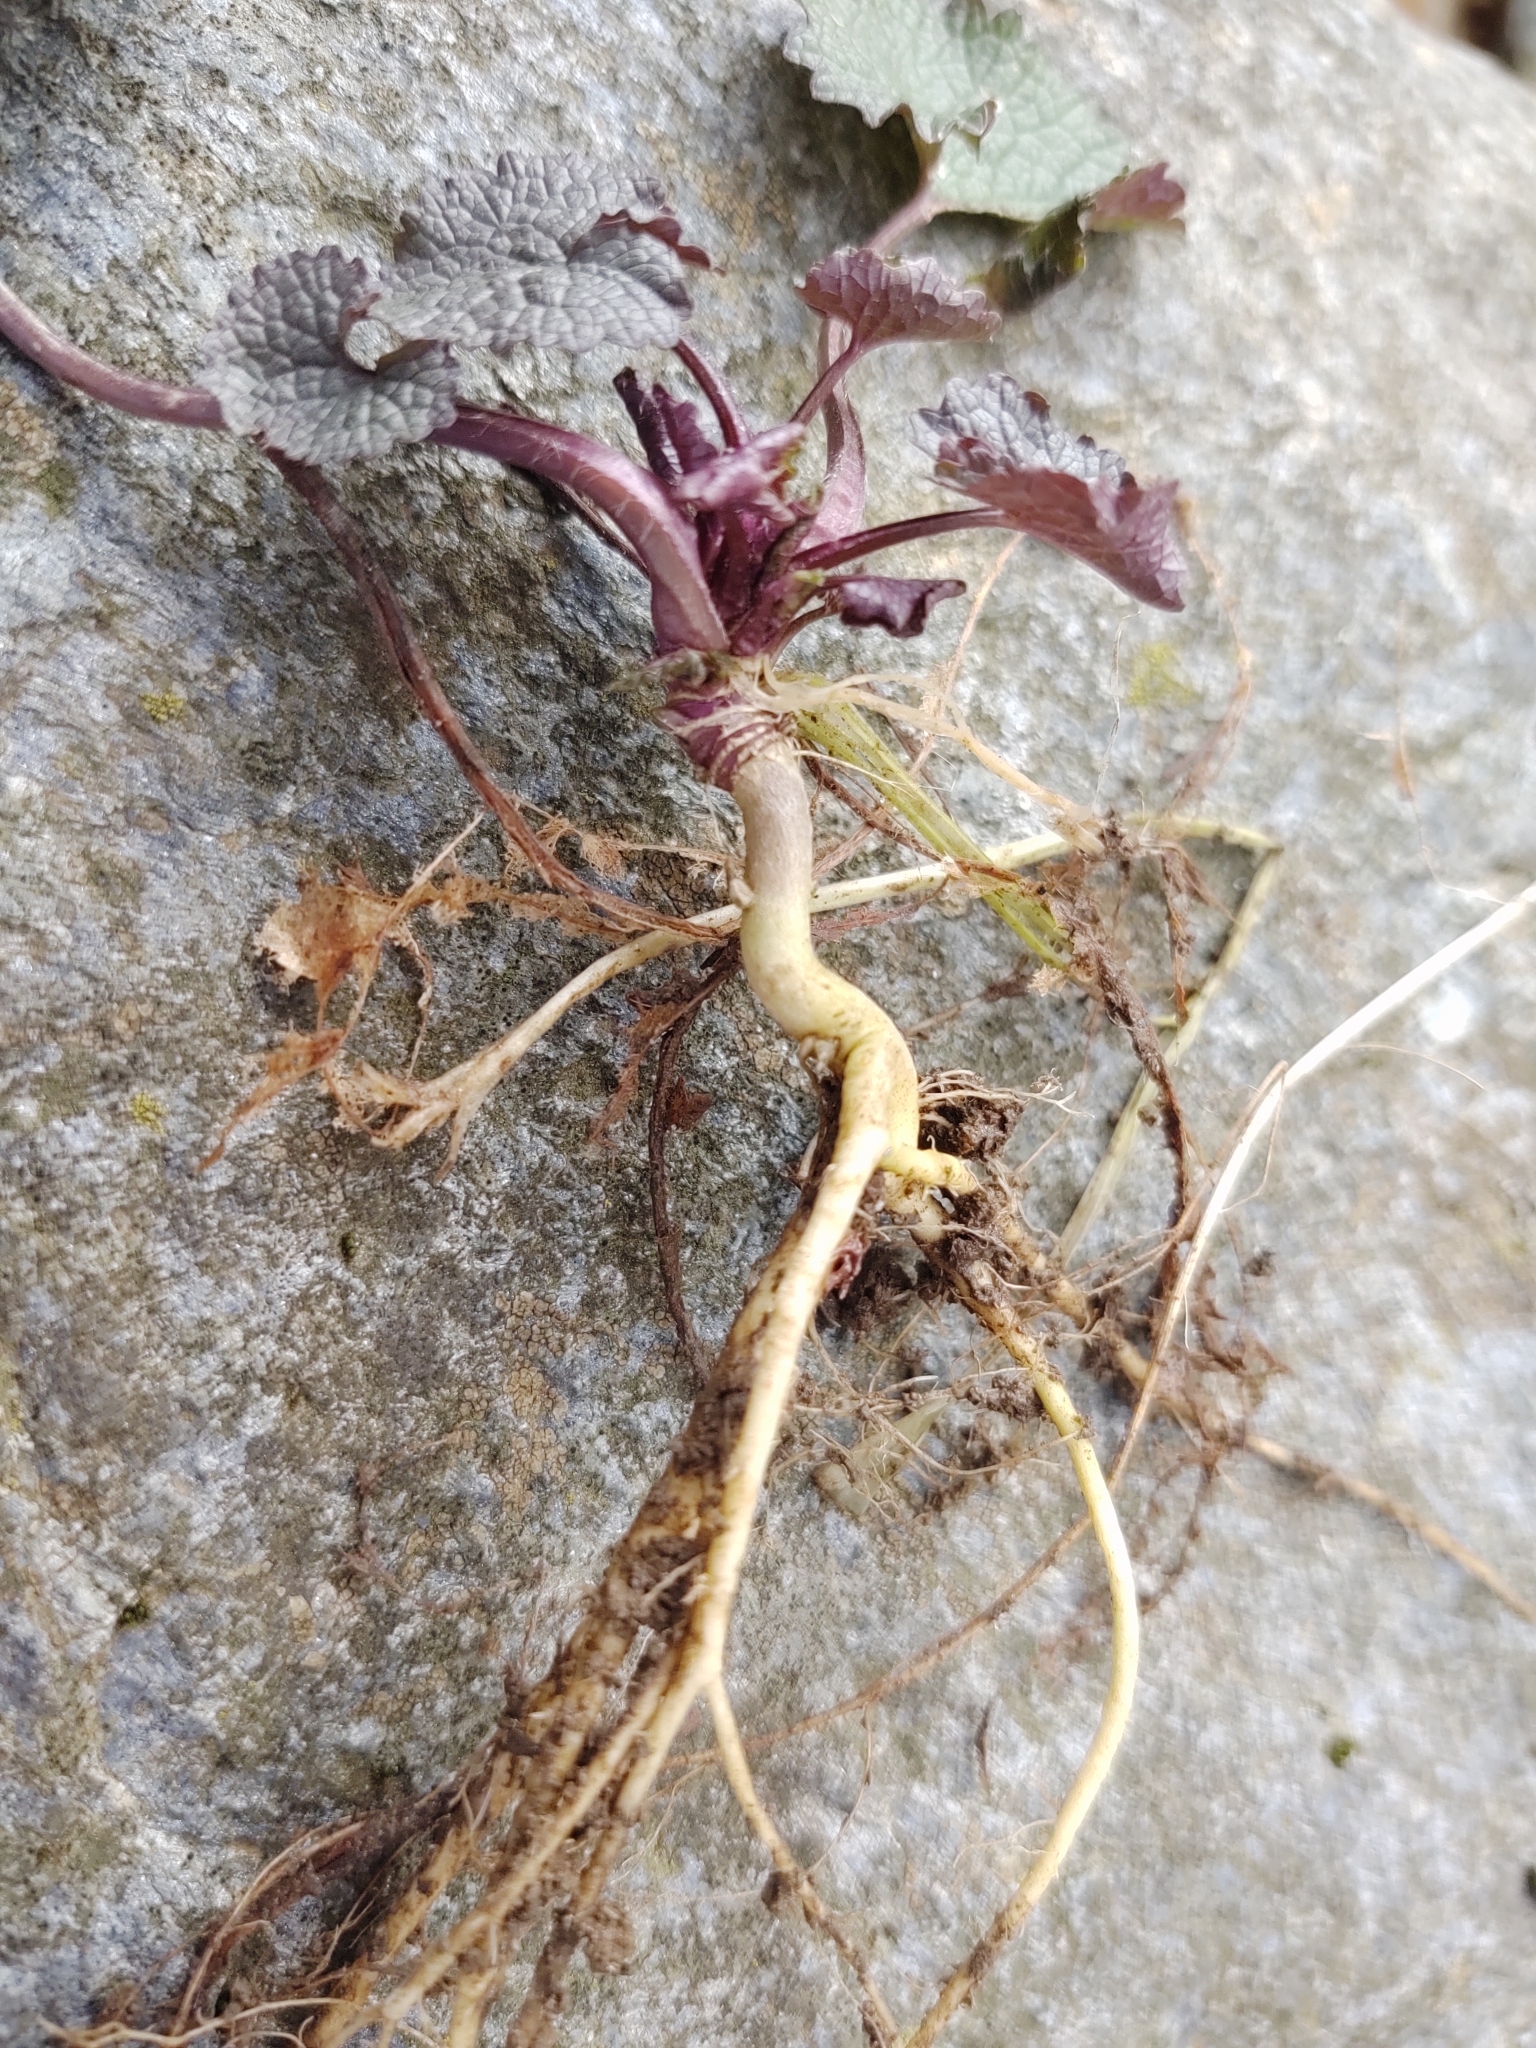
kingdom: Plantae
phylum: Tracheophyta
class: Magnoliopsida
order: Brassicales
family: Brassicaceae
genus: Alliaria
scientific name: Alliaria petiolata
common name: Garlic mustard
